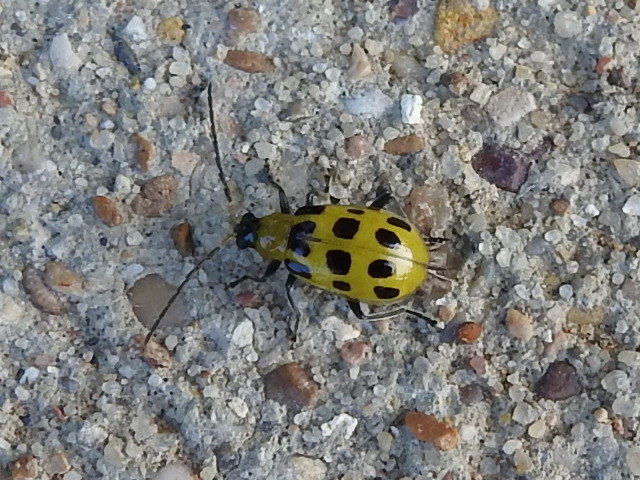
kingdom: Animalia
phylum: Arthropoda
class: Insecta
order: Coleoptera
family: Chrysomelidae
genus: Diabrotica
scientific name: Diabrotica undecimpunctata
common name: Spotted cucumber beetle
